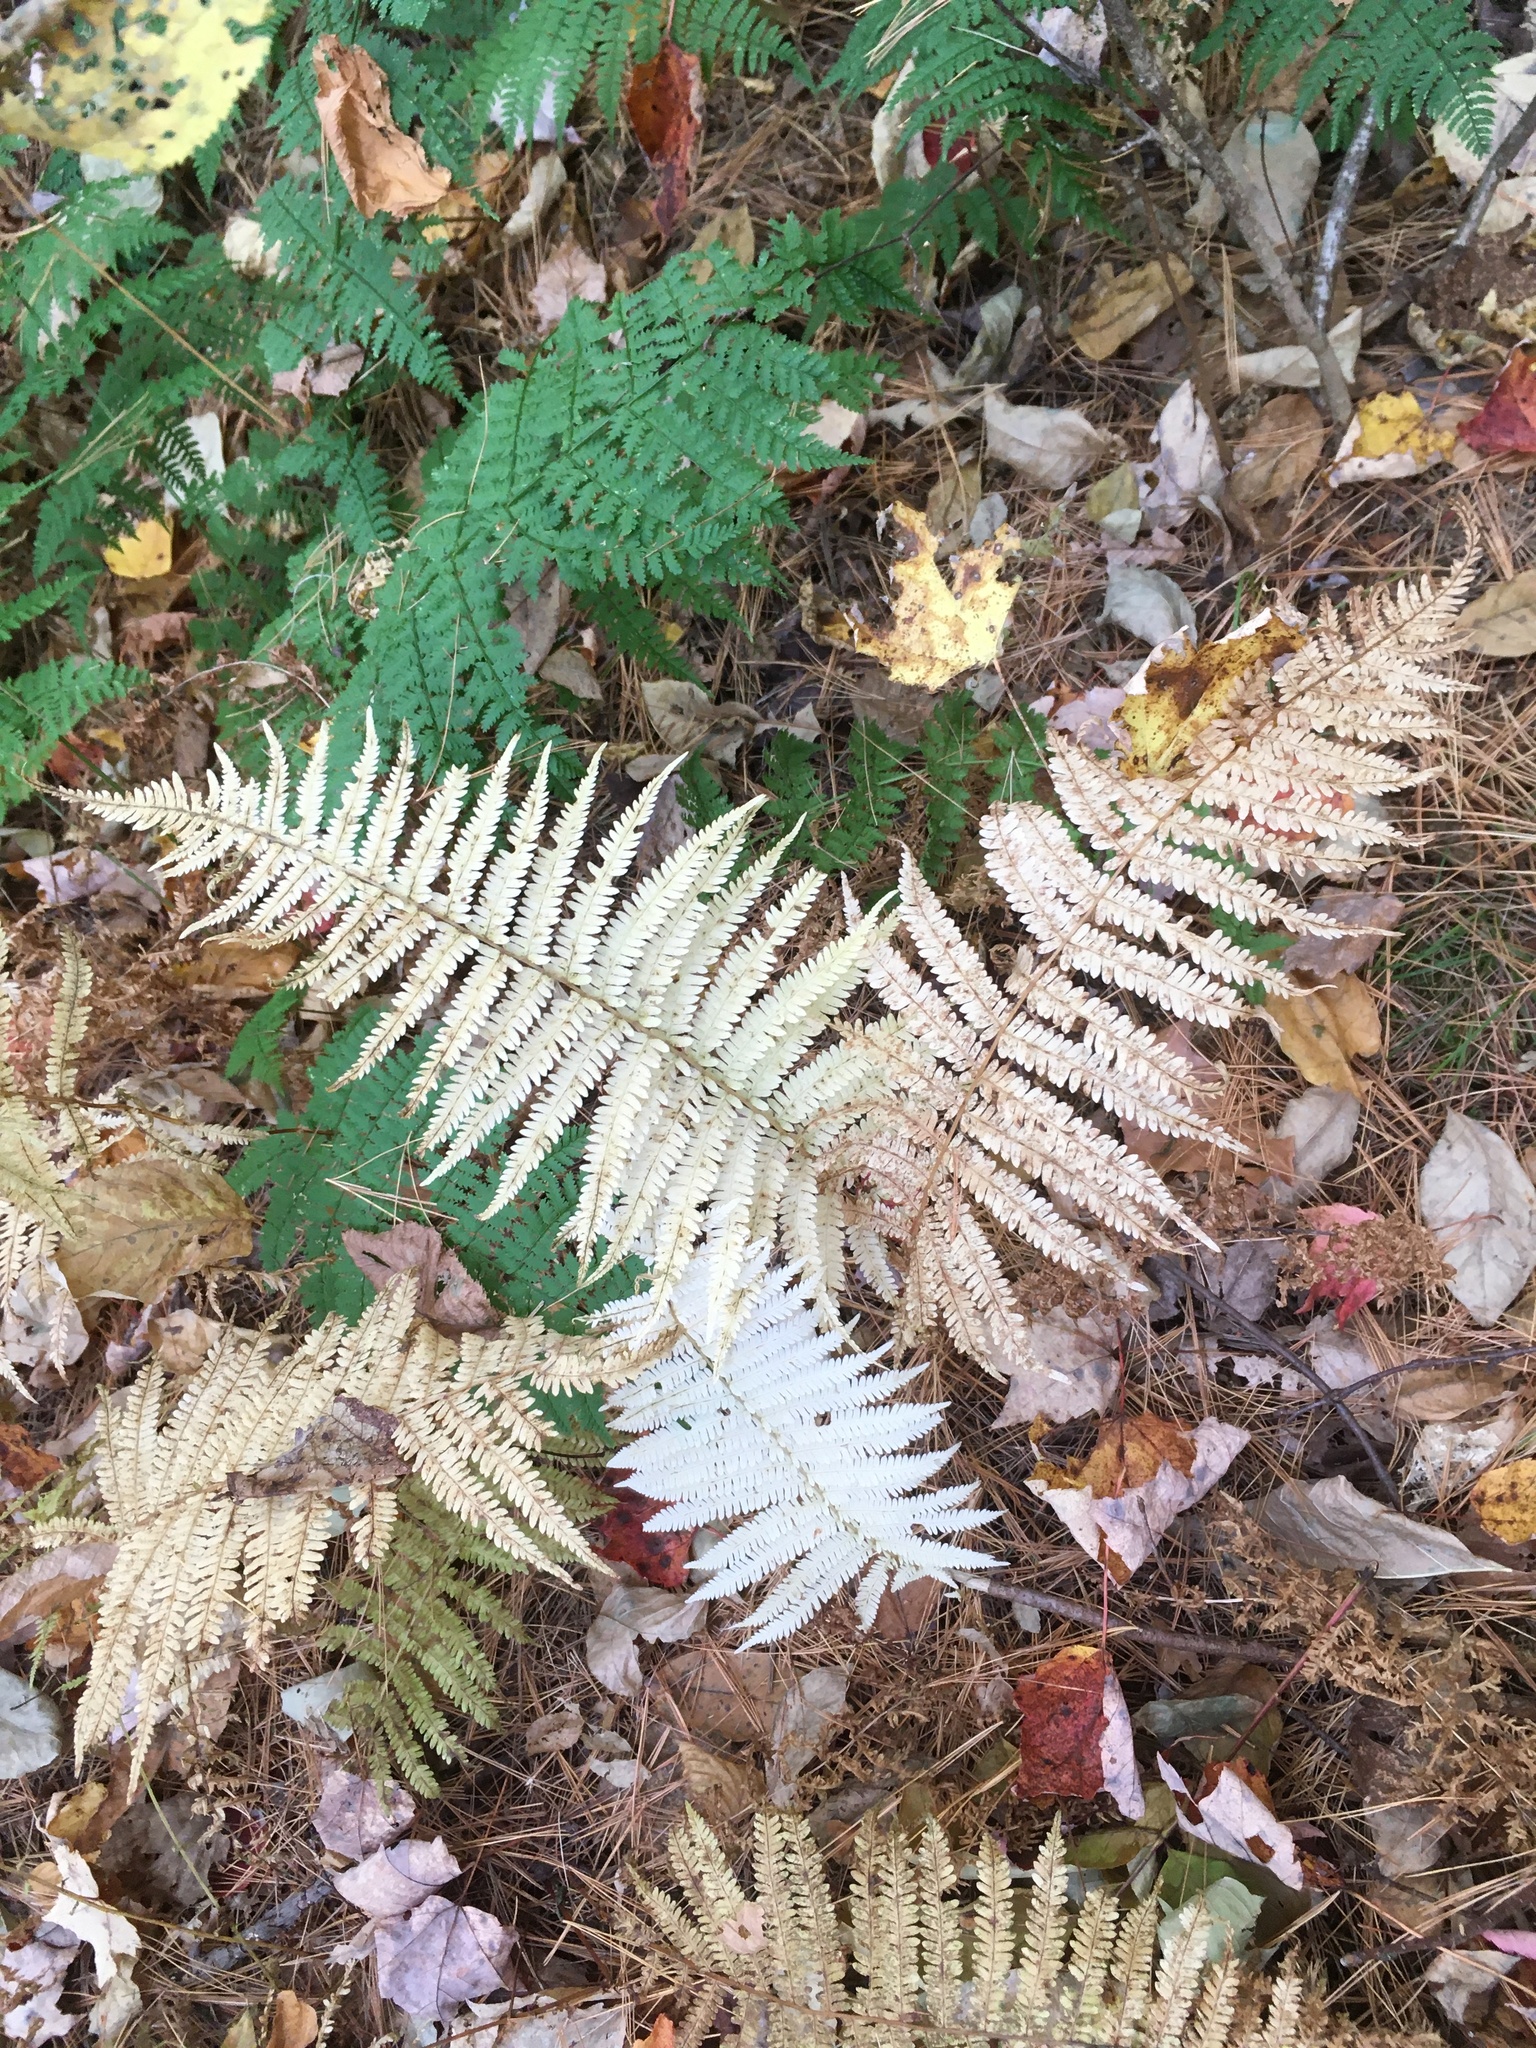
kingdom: Plantae
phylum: Tracheophyta
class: Polypodiopsida
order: Polypodiales
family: Thelypteridaceae
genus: Amauropelta
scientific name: Amauropelta noveboracensis
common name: New york fern
